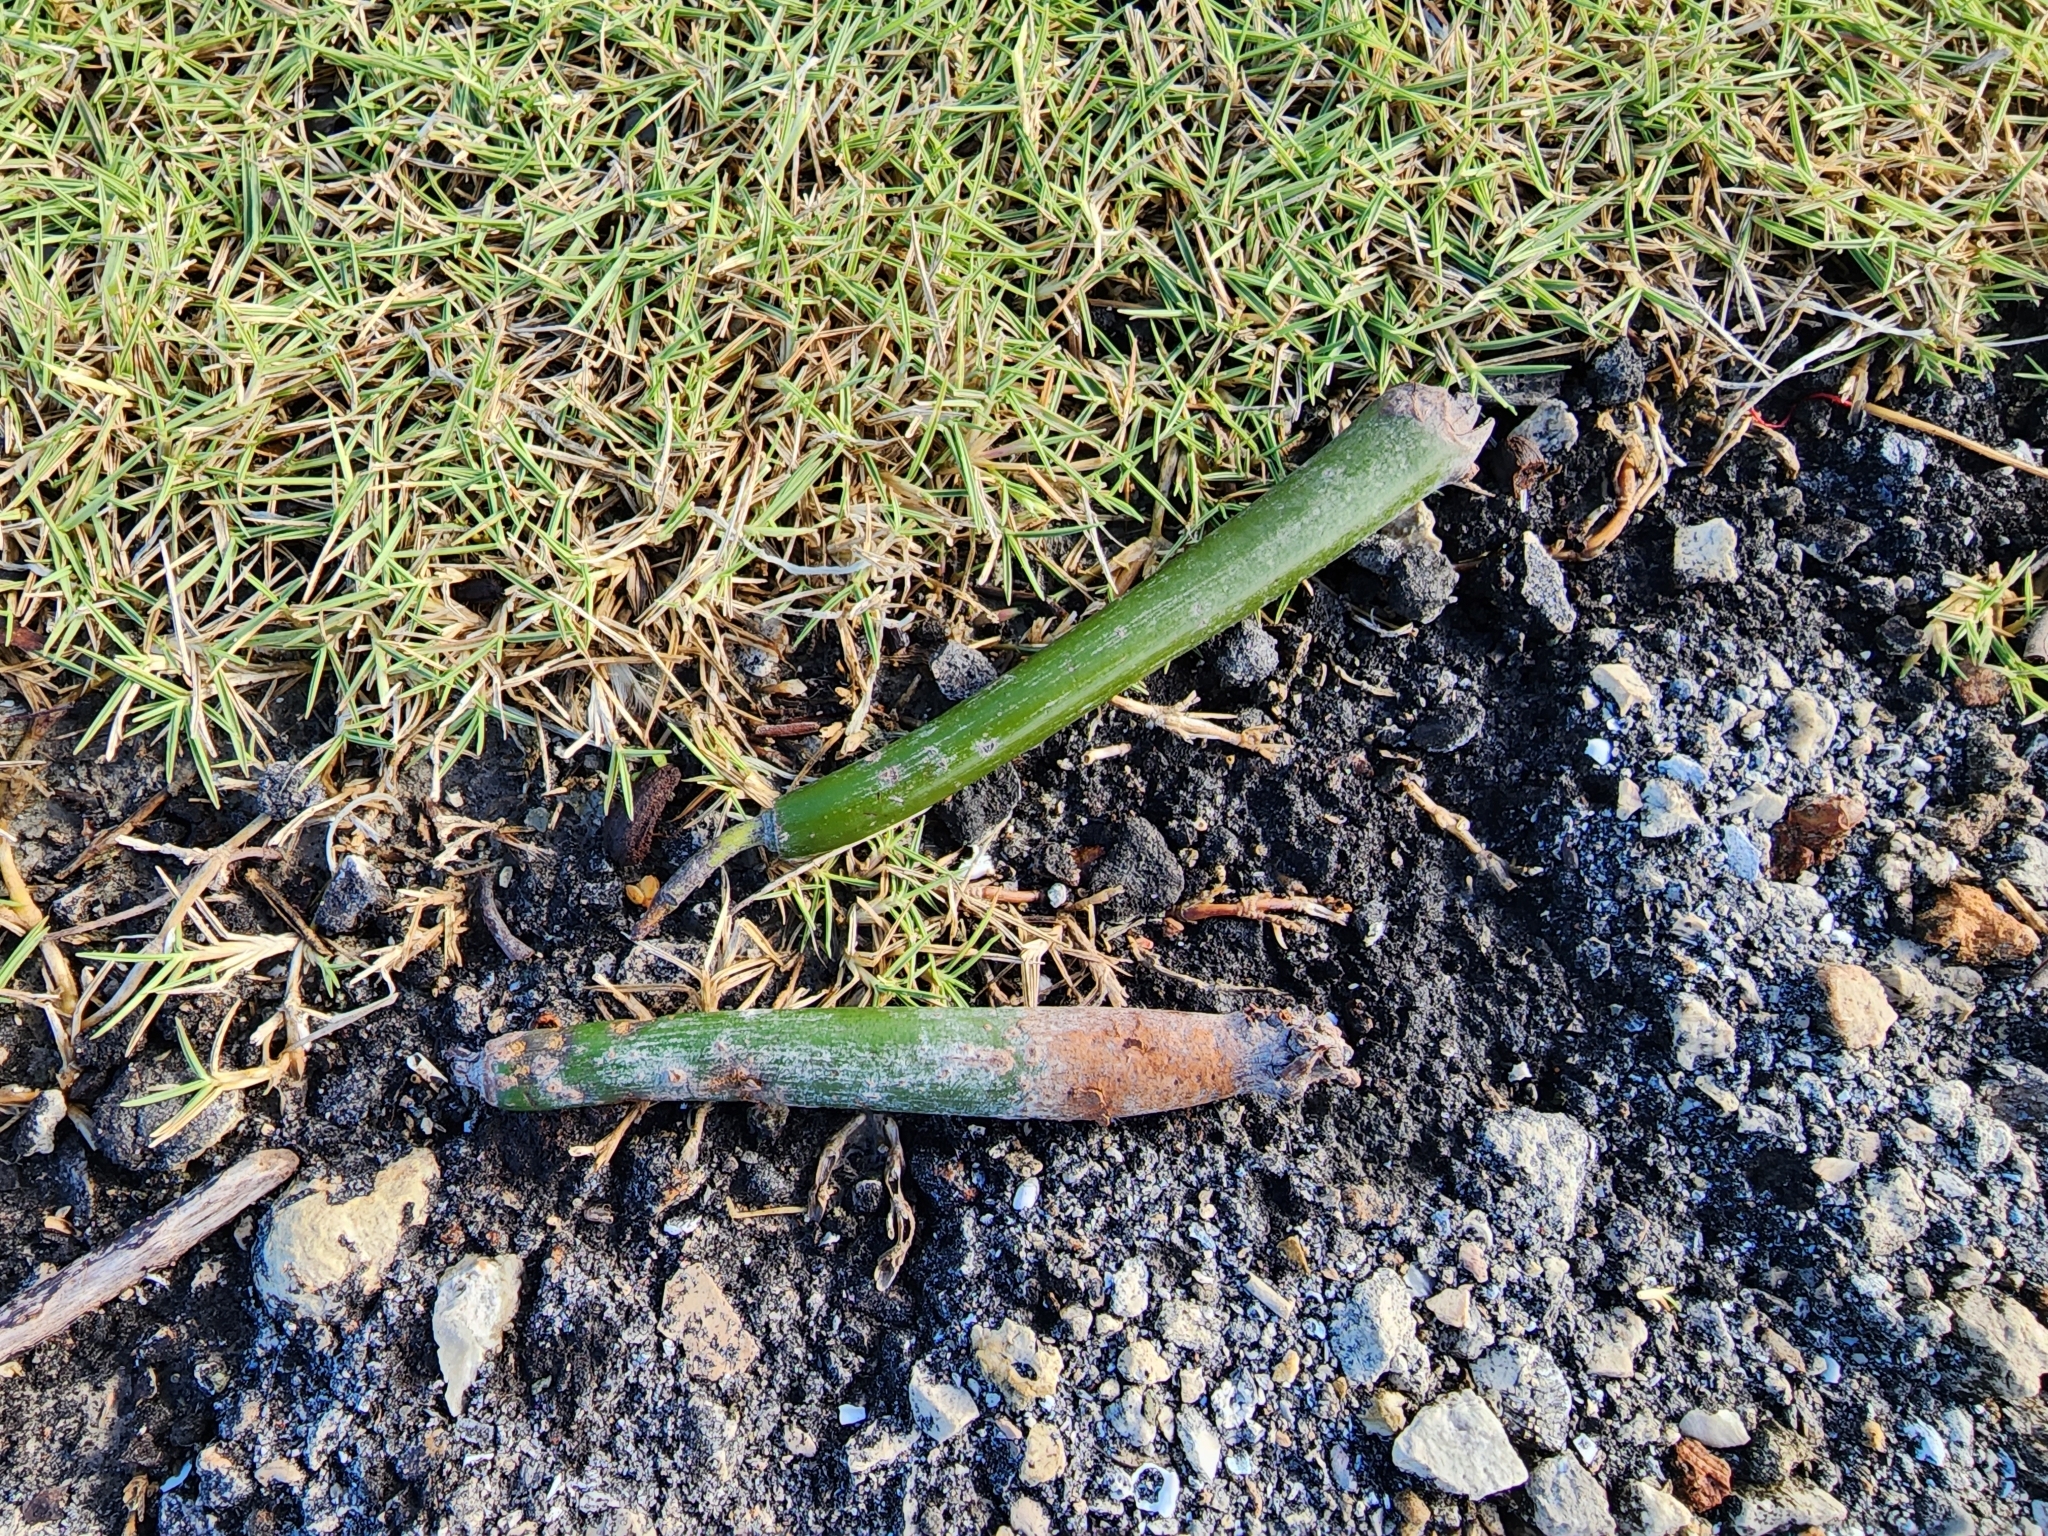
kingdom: Plantae
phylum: Tracheophyta
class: Magnoliopsida
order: Malpighiales
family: Rhizophoraceae
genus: Rhizophora
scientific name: Rhizophora mangle
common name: Red mangrove
